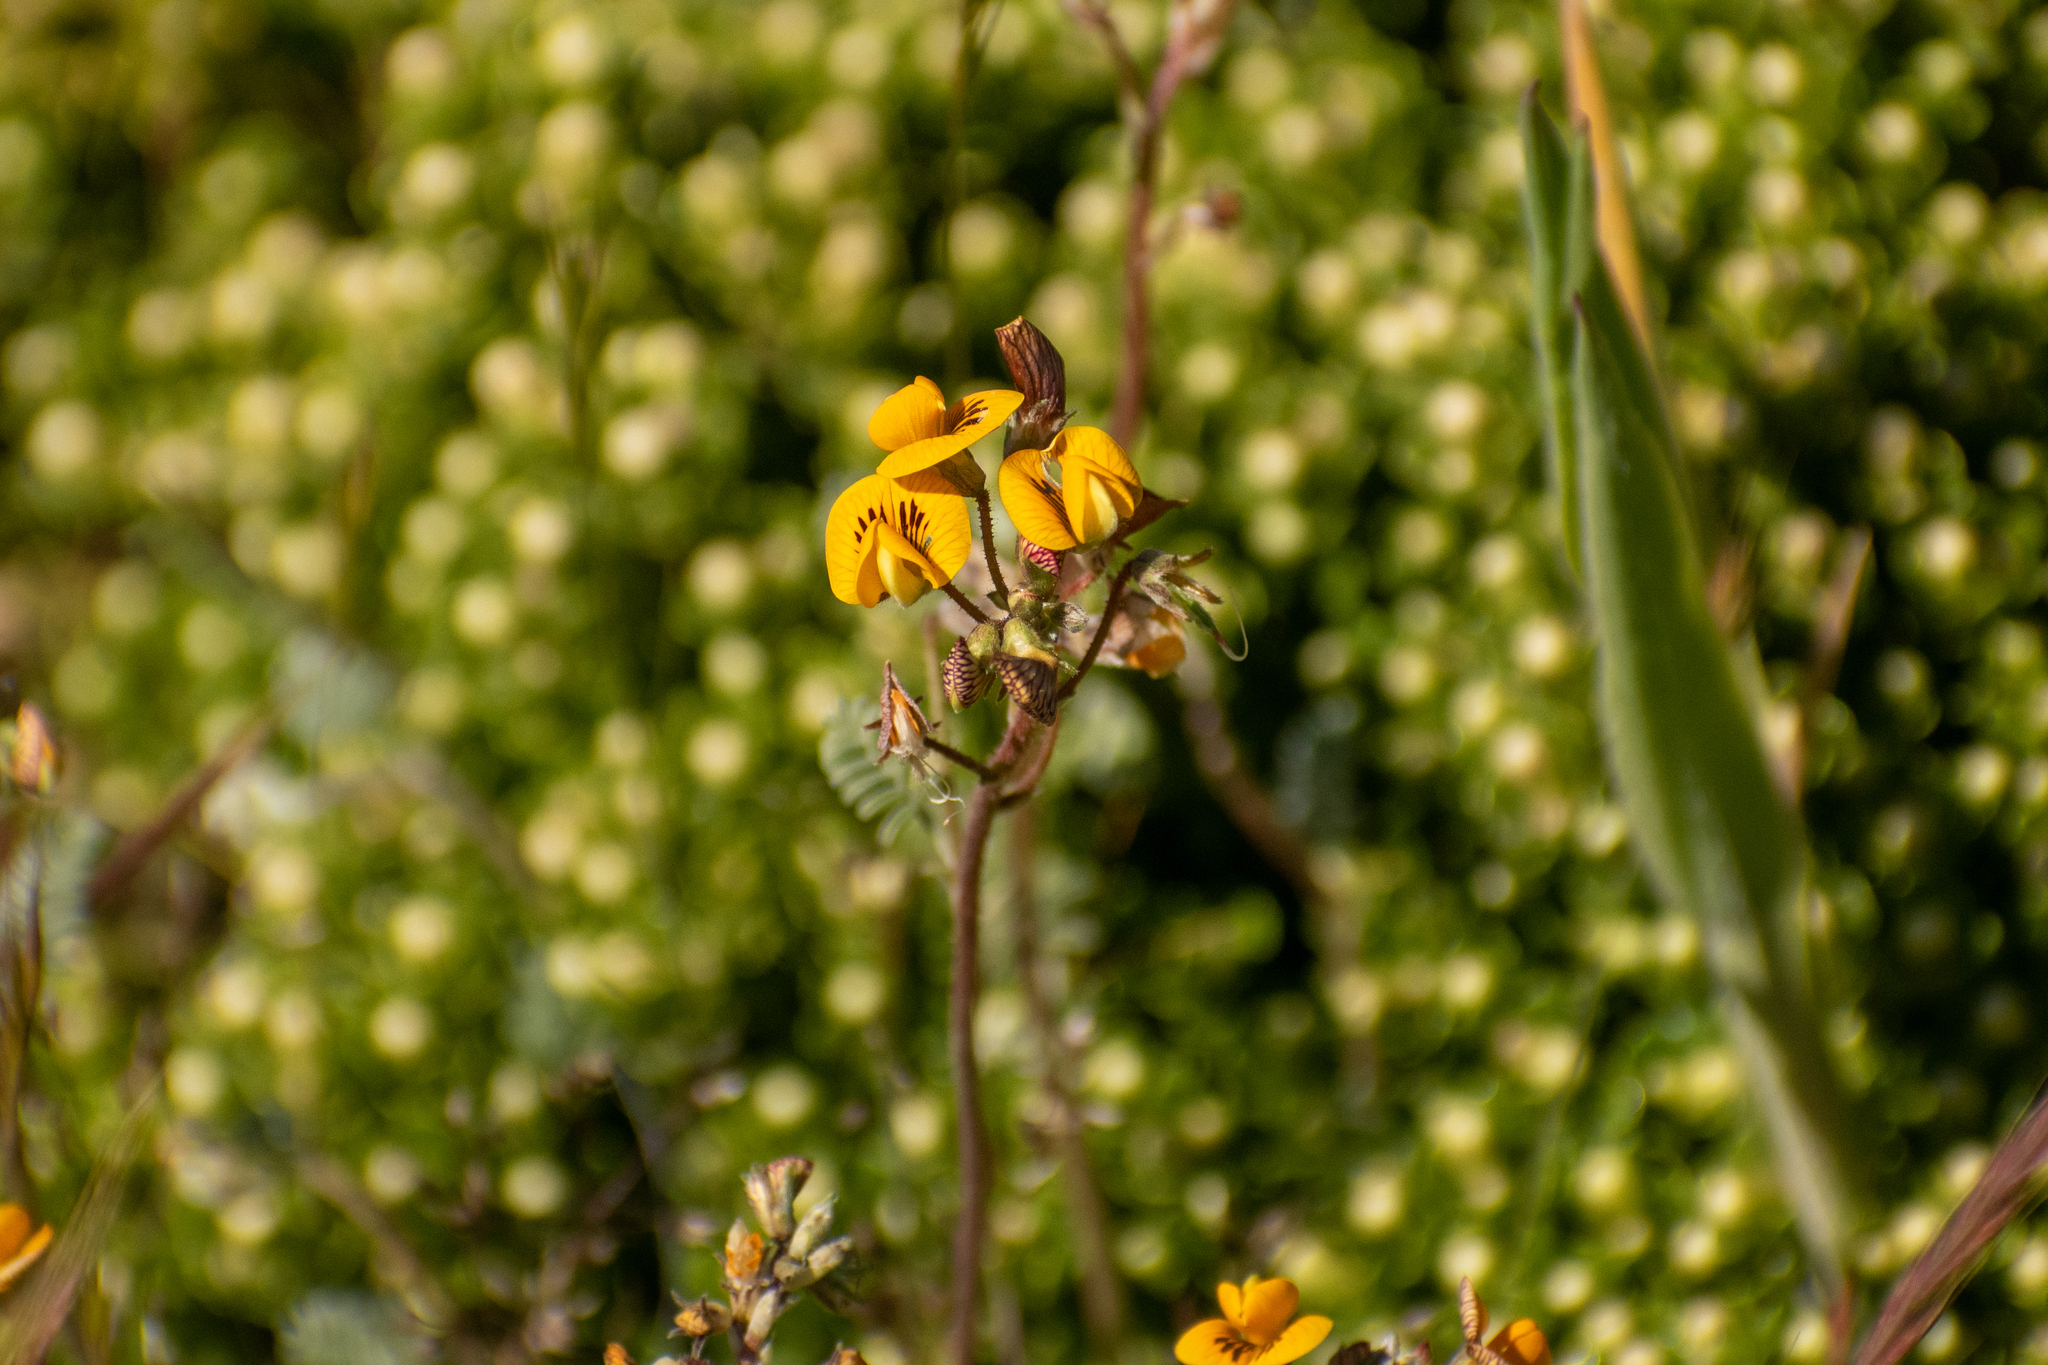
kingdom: Plantae
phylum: Tracheophyta
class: Magnoliopsida
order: Fabales
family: Fabaceae
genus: Adesmia
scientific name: Adesmia corymbosa
